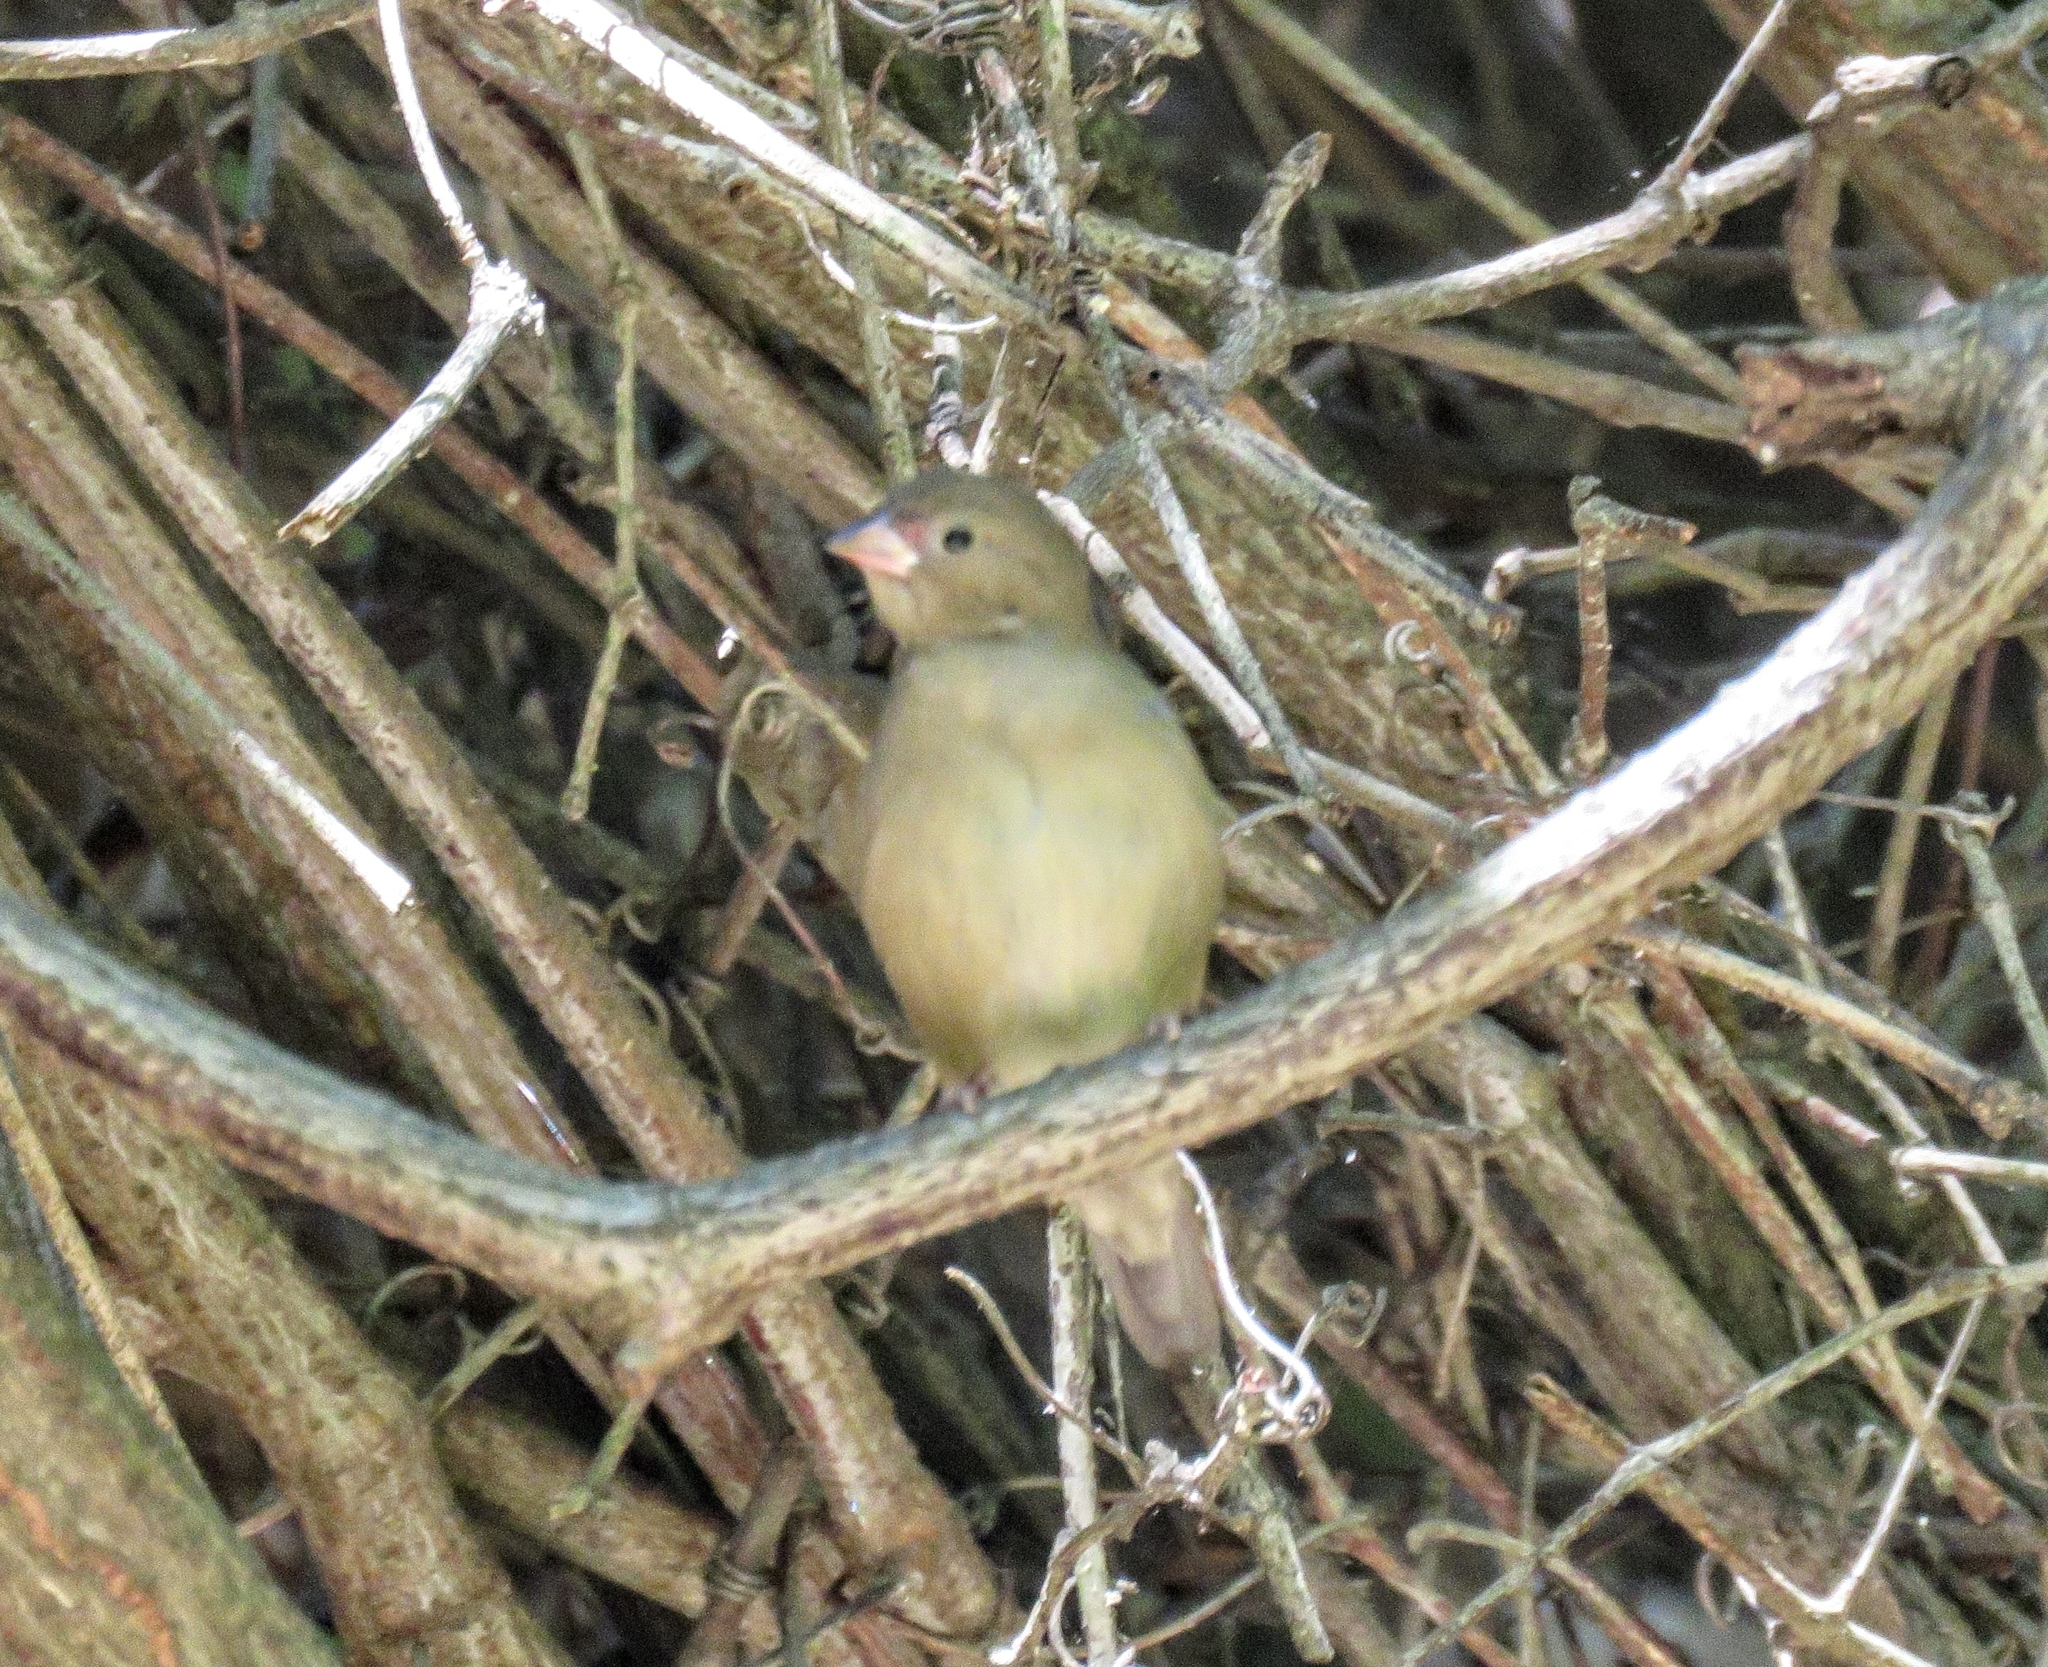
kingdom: Animalia
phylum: Chordata
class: Aves
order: Passeriformes
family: Estrildidae
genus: Lagonosticta
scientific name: Lagonosticta senegala
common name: Red-billed firefinch
